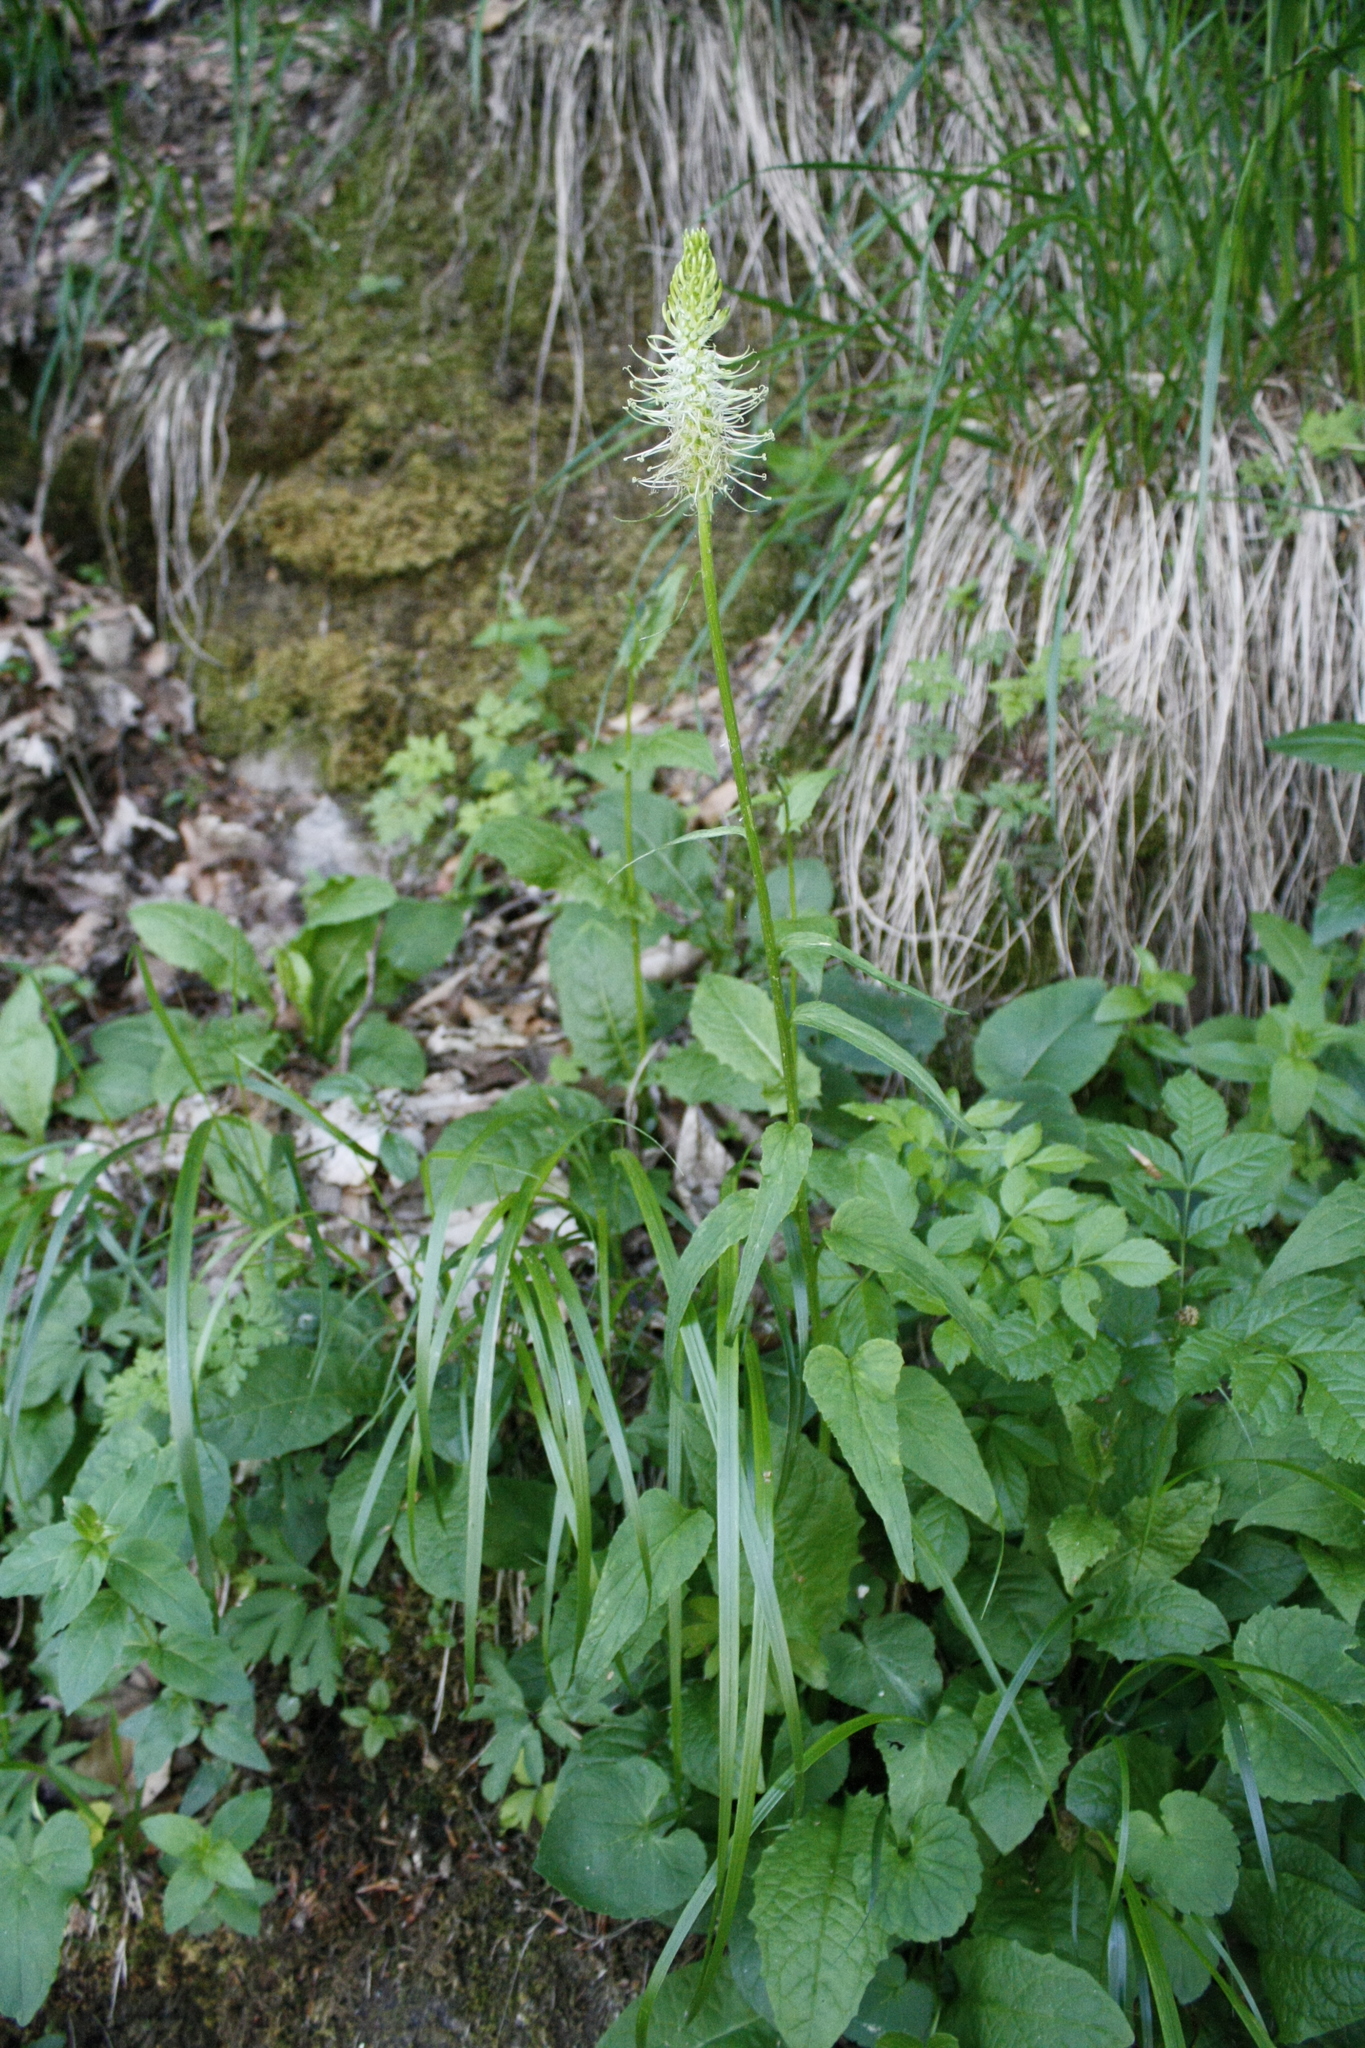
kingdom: Plantae
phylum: Tracheophyta
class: Magnoliopsida
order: Asterales
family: Campanulaceae
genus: Phyteuma
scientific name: Phyteuma spicatum
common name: Spiked rampion
